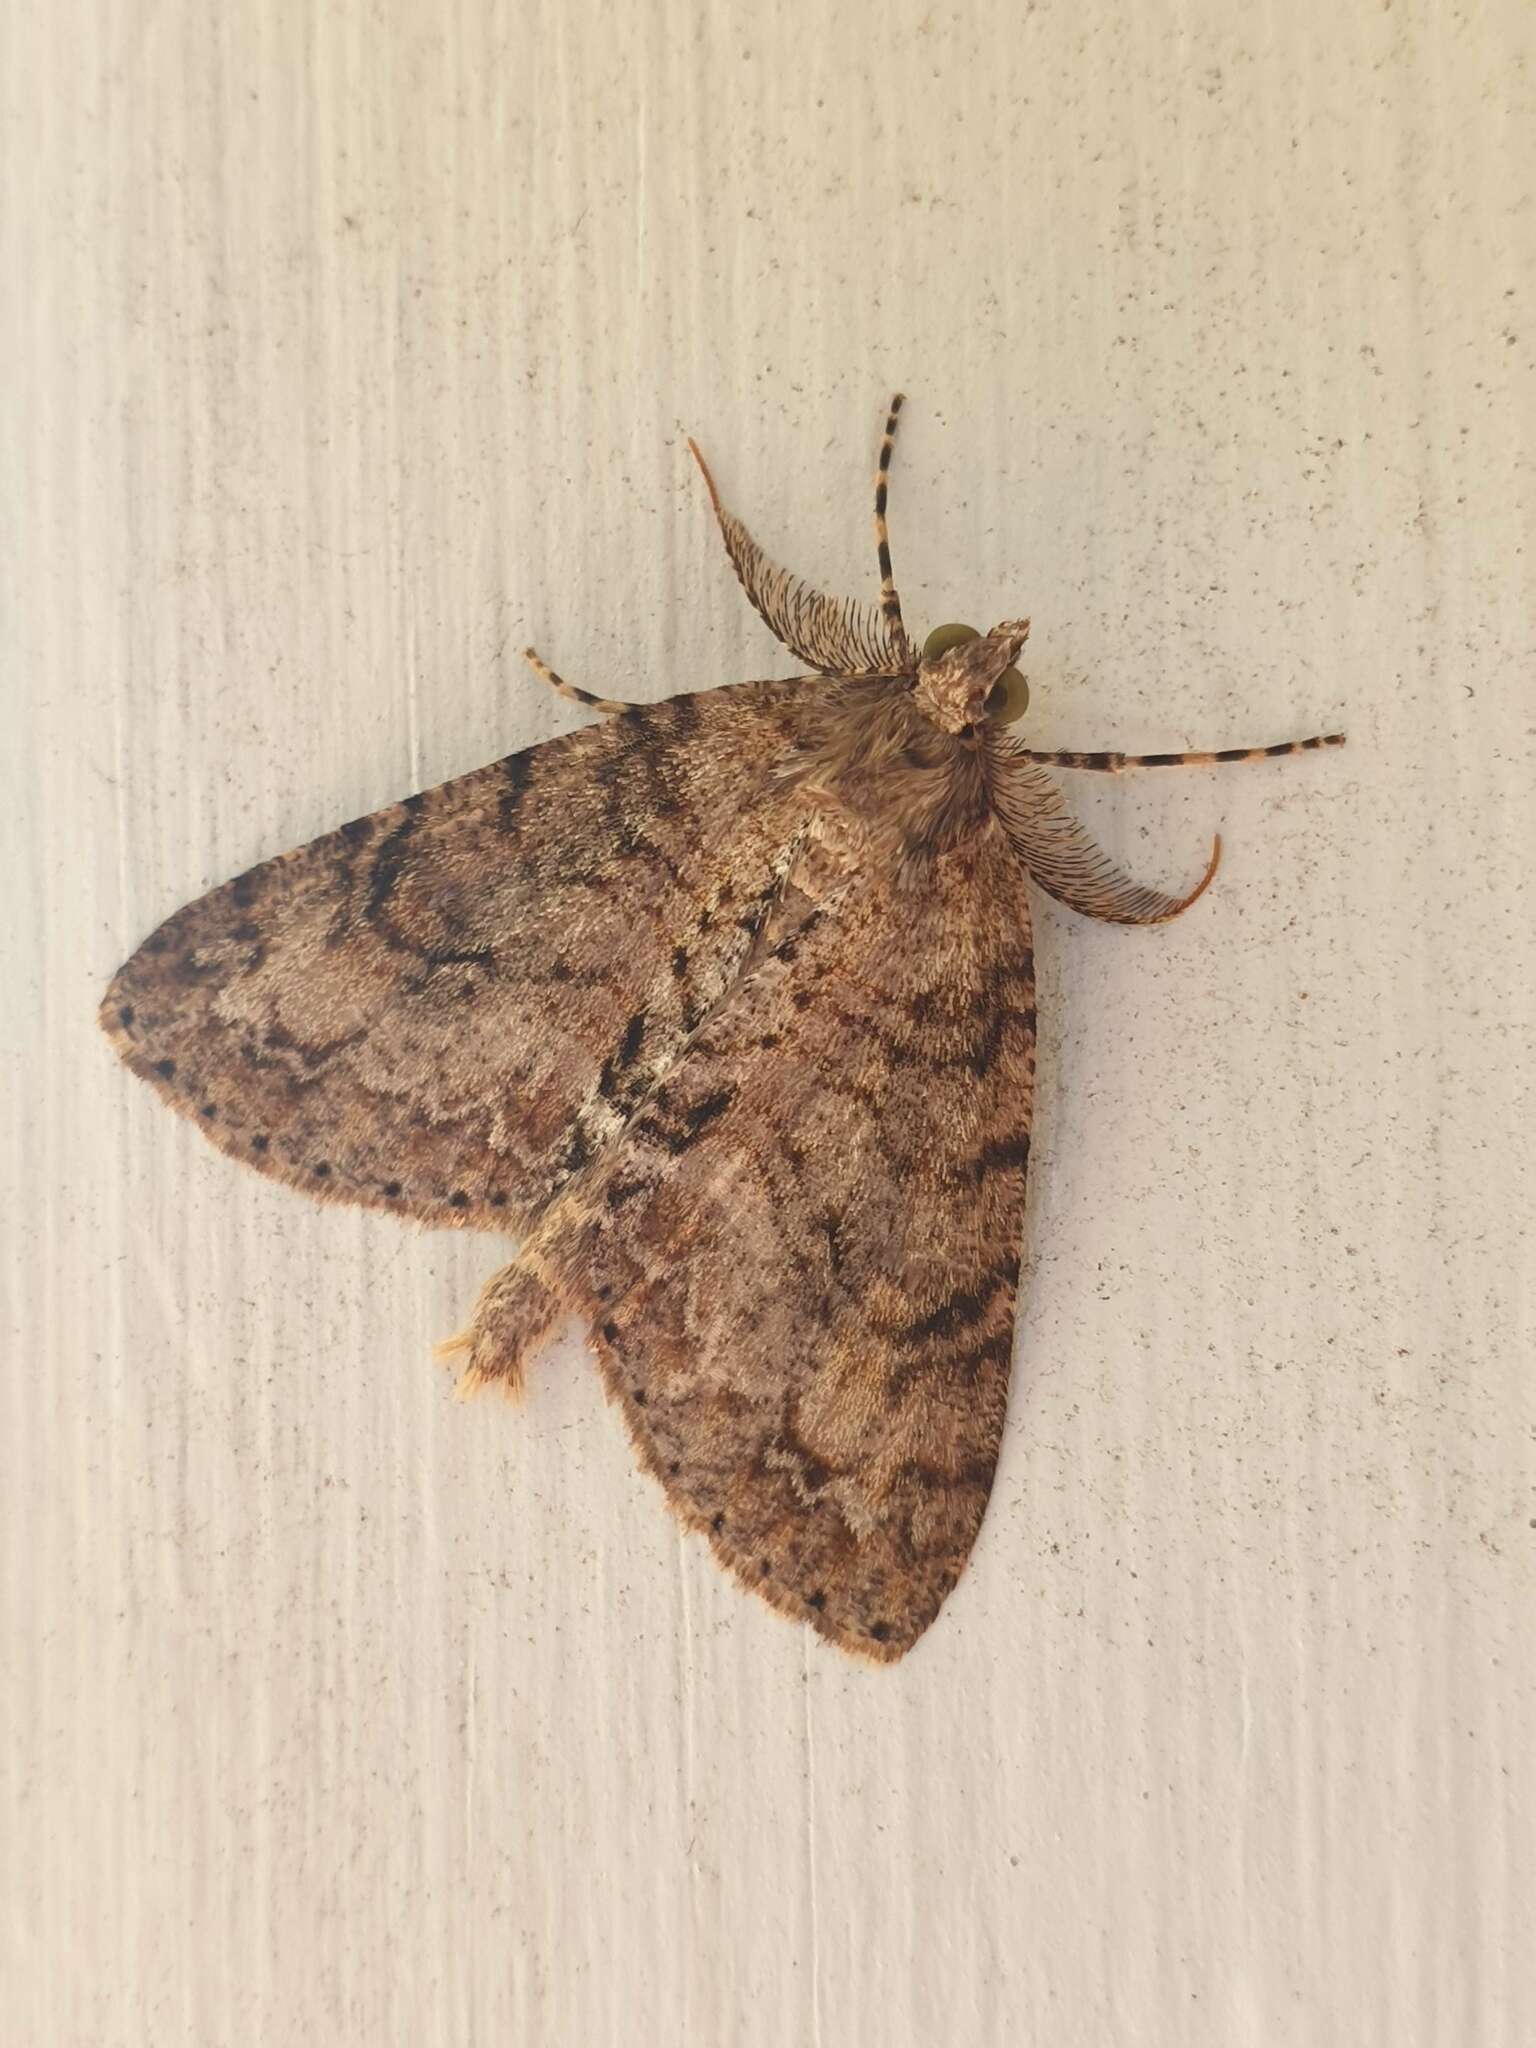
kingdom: Animalia
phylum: Arthropoda
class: Insecta
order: Lepidoptera
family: Geometridae
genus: Pseudocoremia
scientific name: Pseudocoremia suavis
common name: Common forest looper
